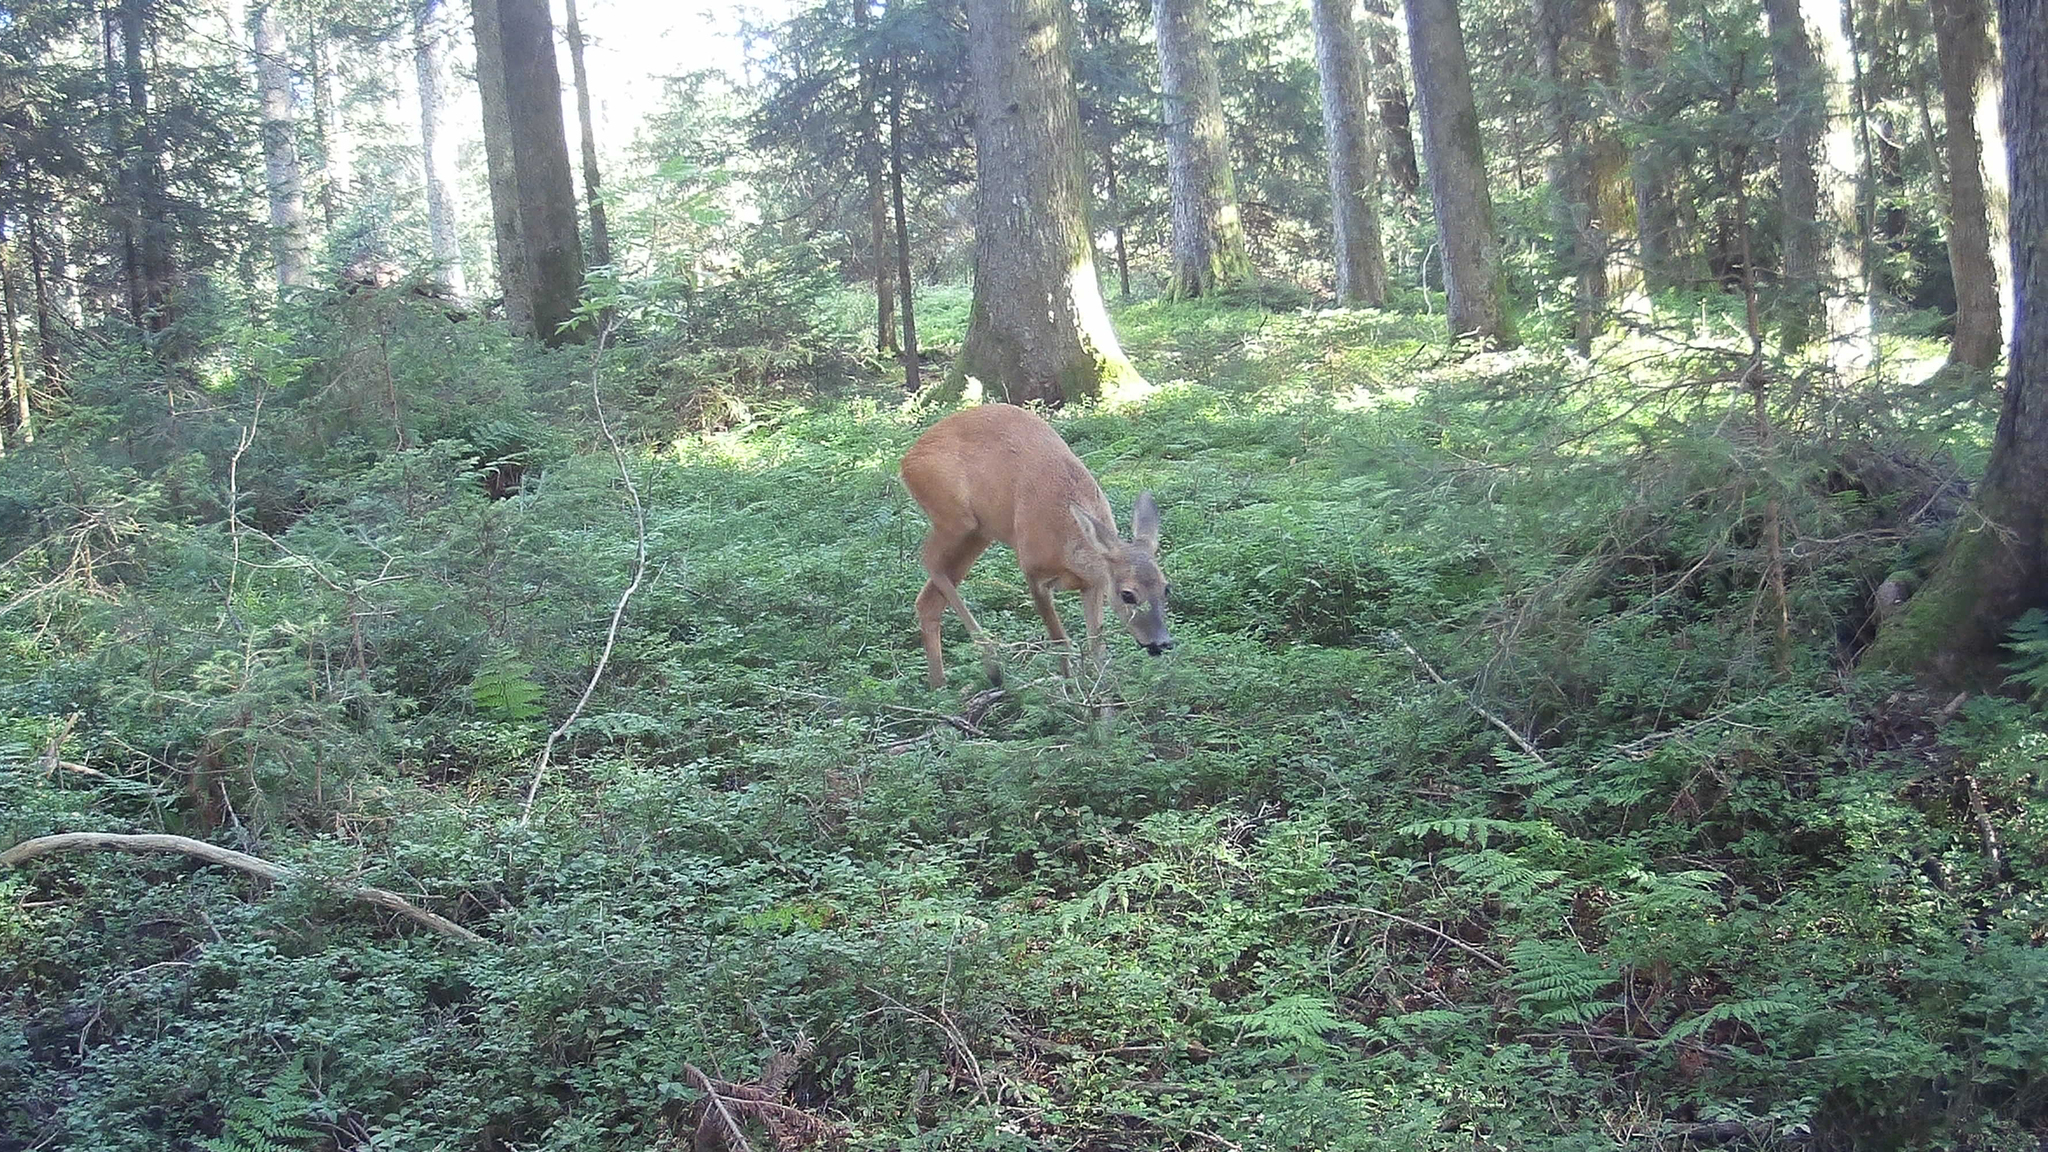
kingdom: Animalia
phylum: Chordata
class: Mammalia
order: Artiodactyla
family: Cervidae
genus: Capreolus
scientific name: Capreolus capreolus
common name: Western roe deer
